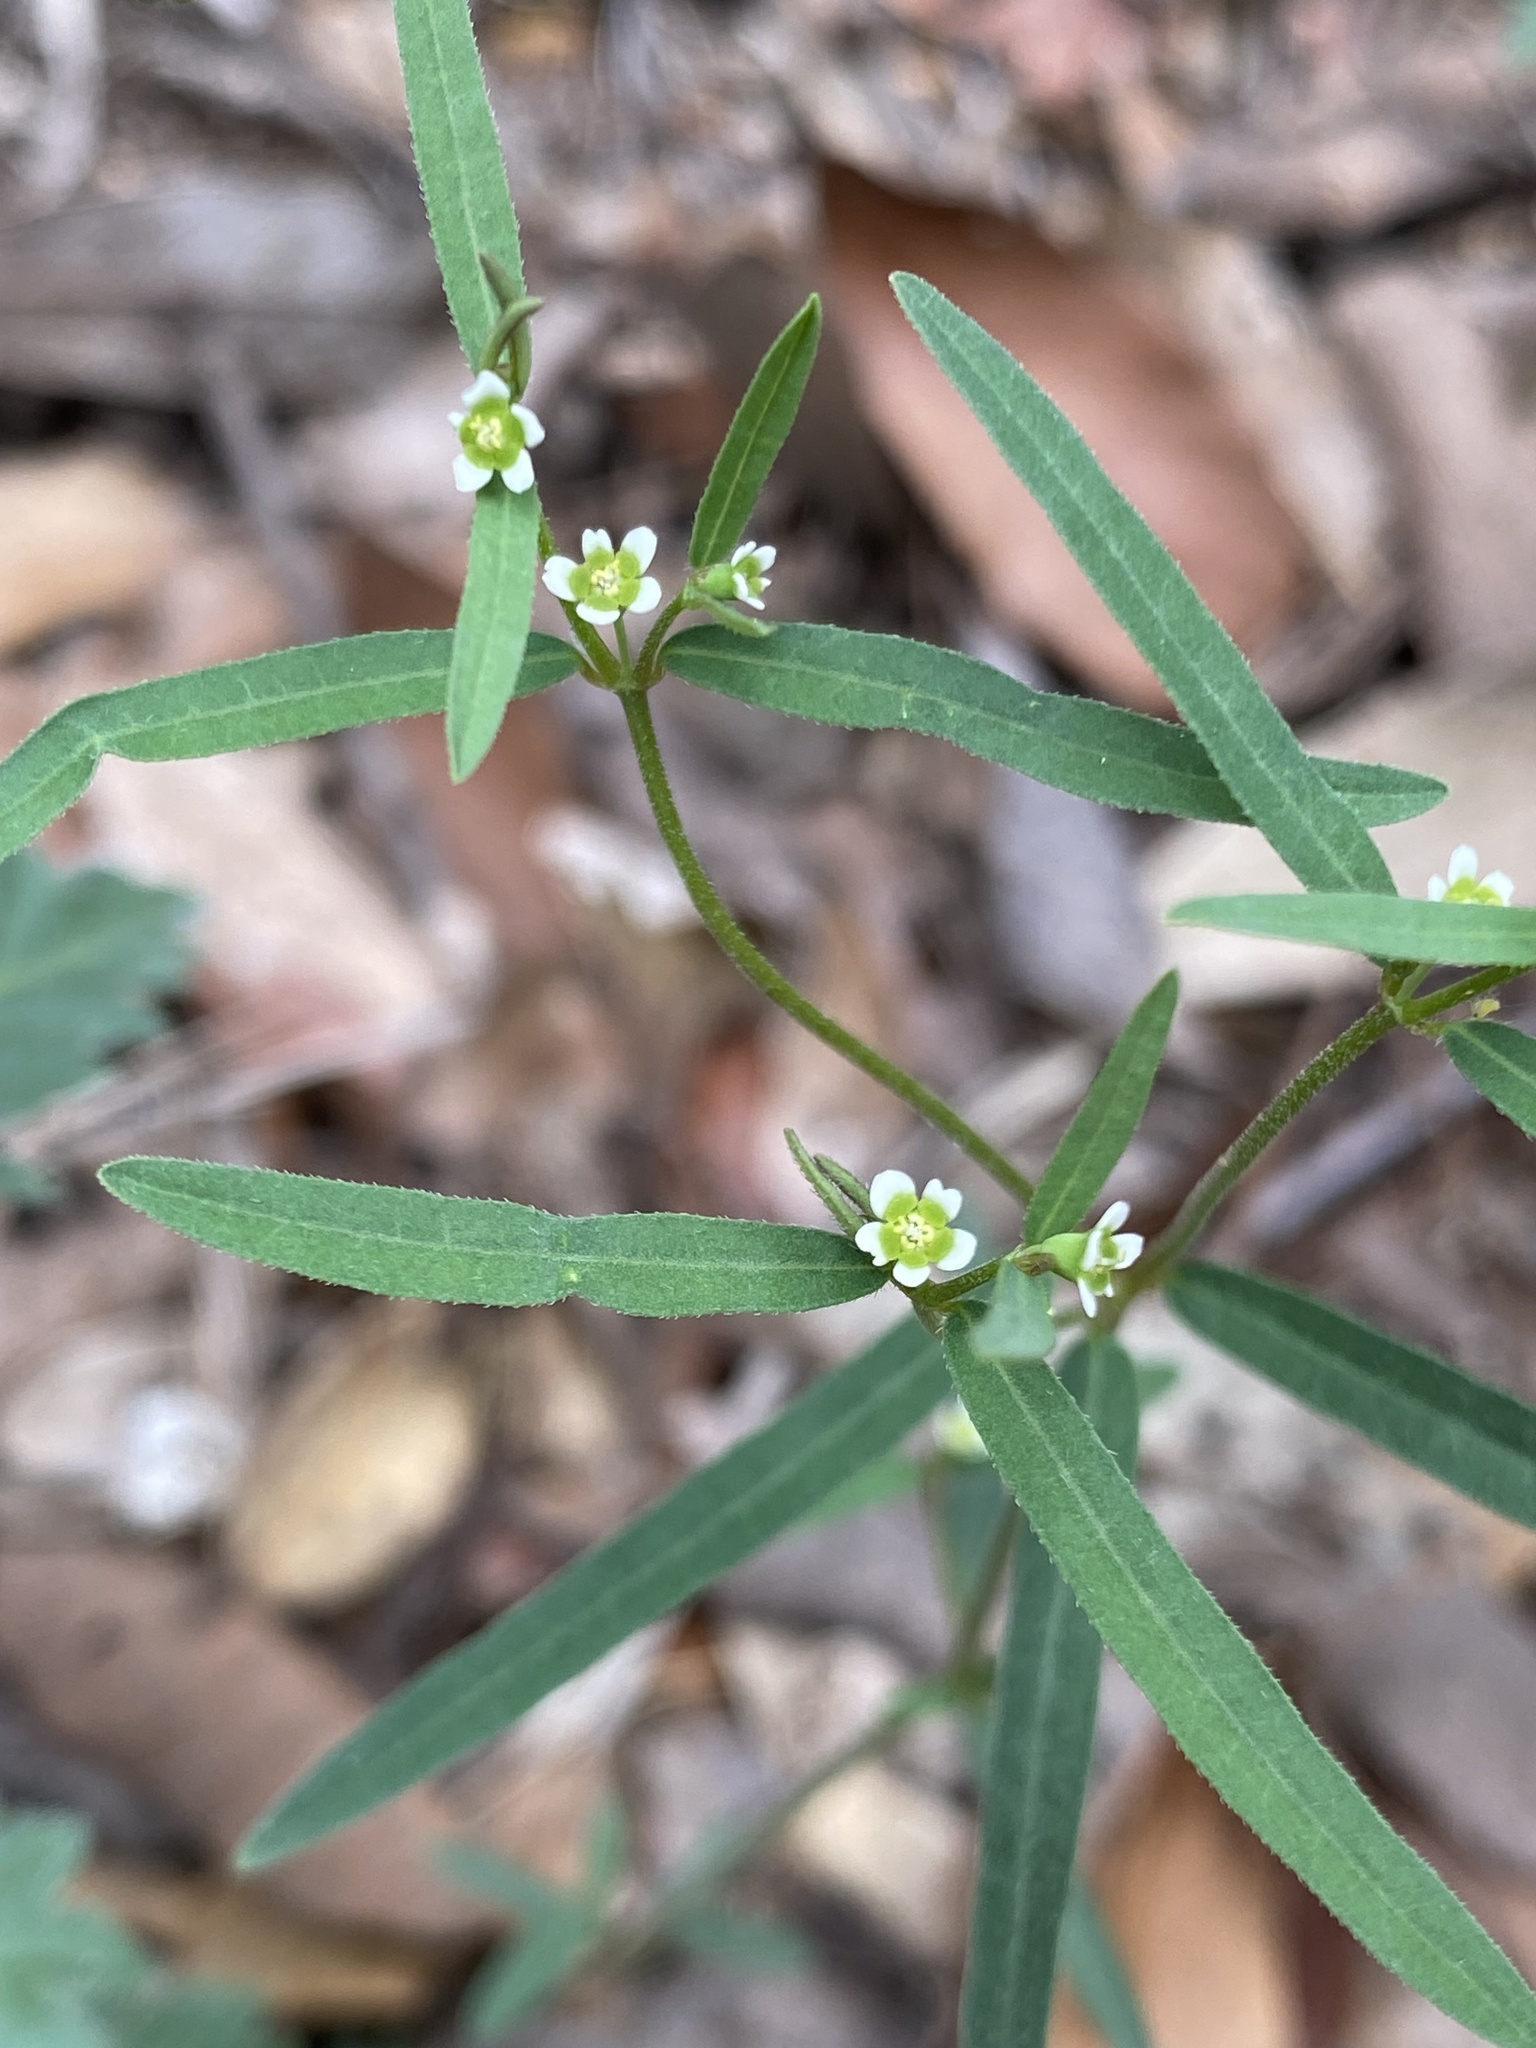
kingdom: Plantae
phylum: Tracheophyta
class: Magnoliopsida
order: Malpighiales
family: Euphorbiaceae
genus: Euphorbia
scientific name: Euphorbia macropus
